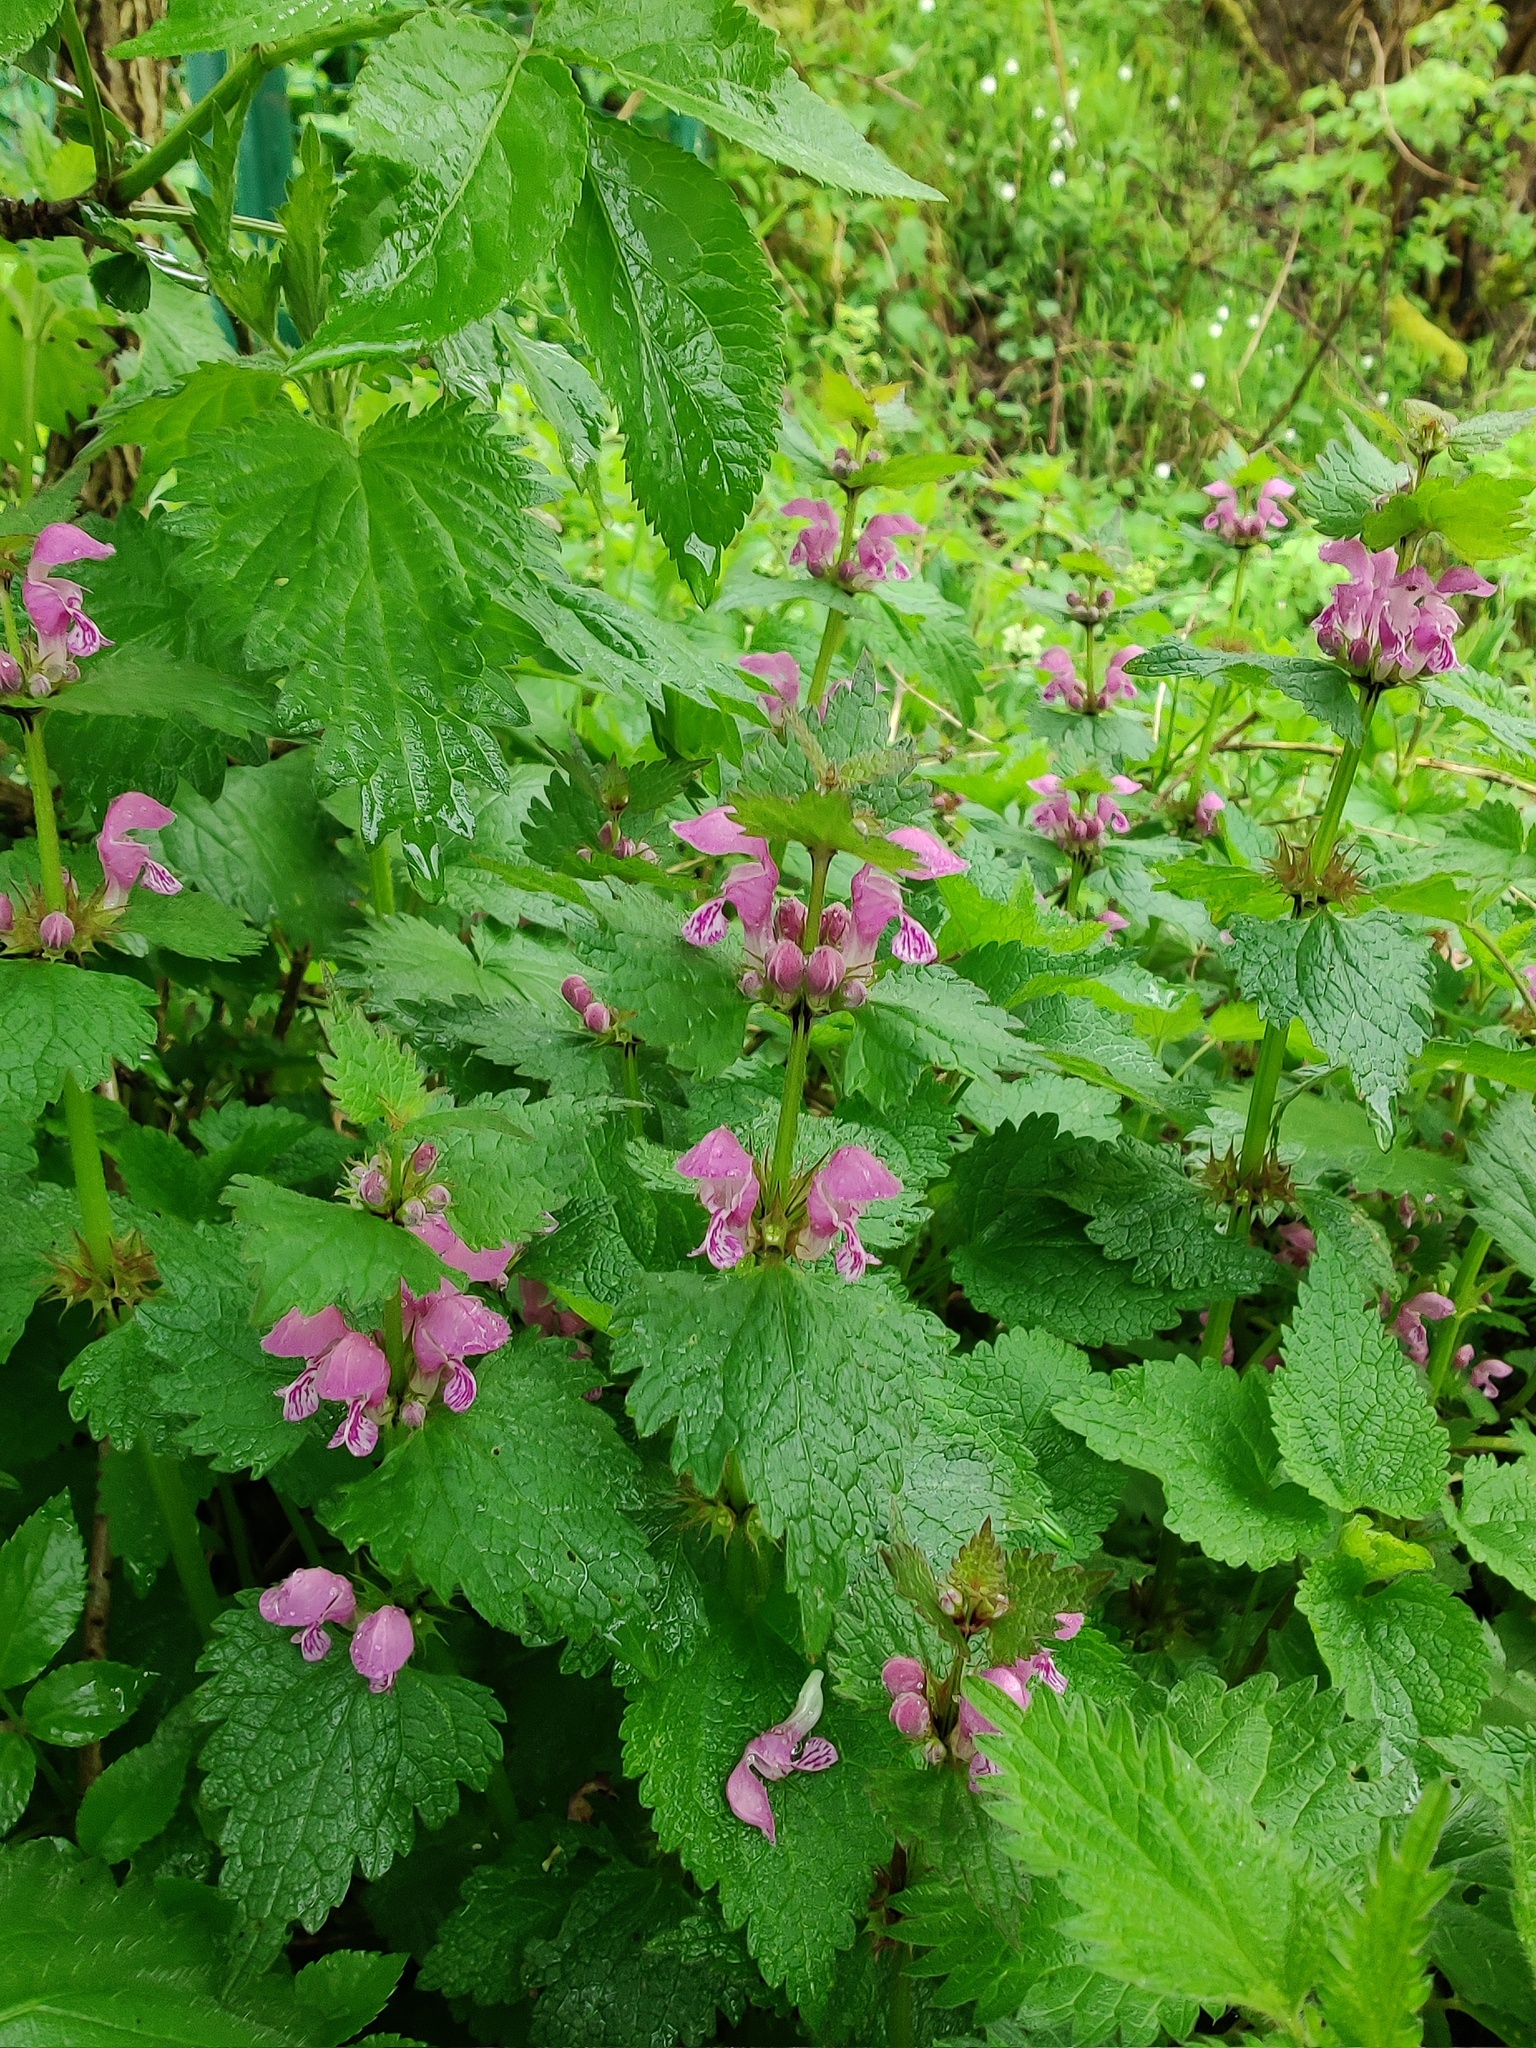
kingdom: Plantae
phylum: Tracheophyta
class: Magnoliopsida
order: Lamiales
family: Lamiaceae
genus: Lamium
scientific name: Lamium maculatum
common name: Spotted dead-nettle
